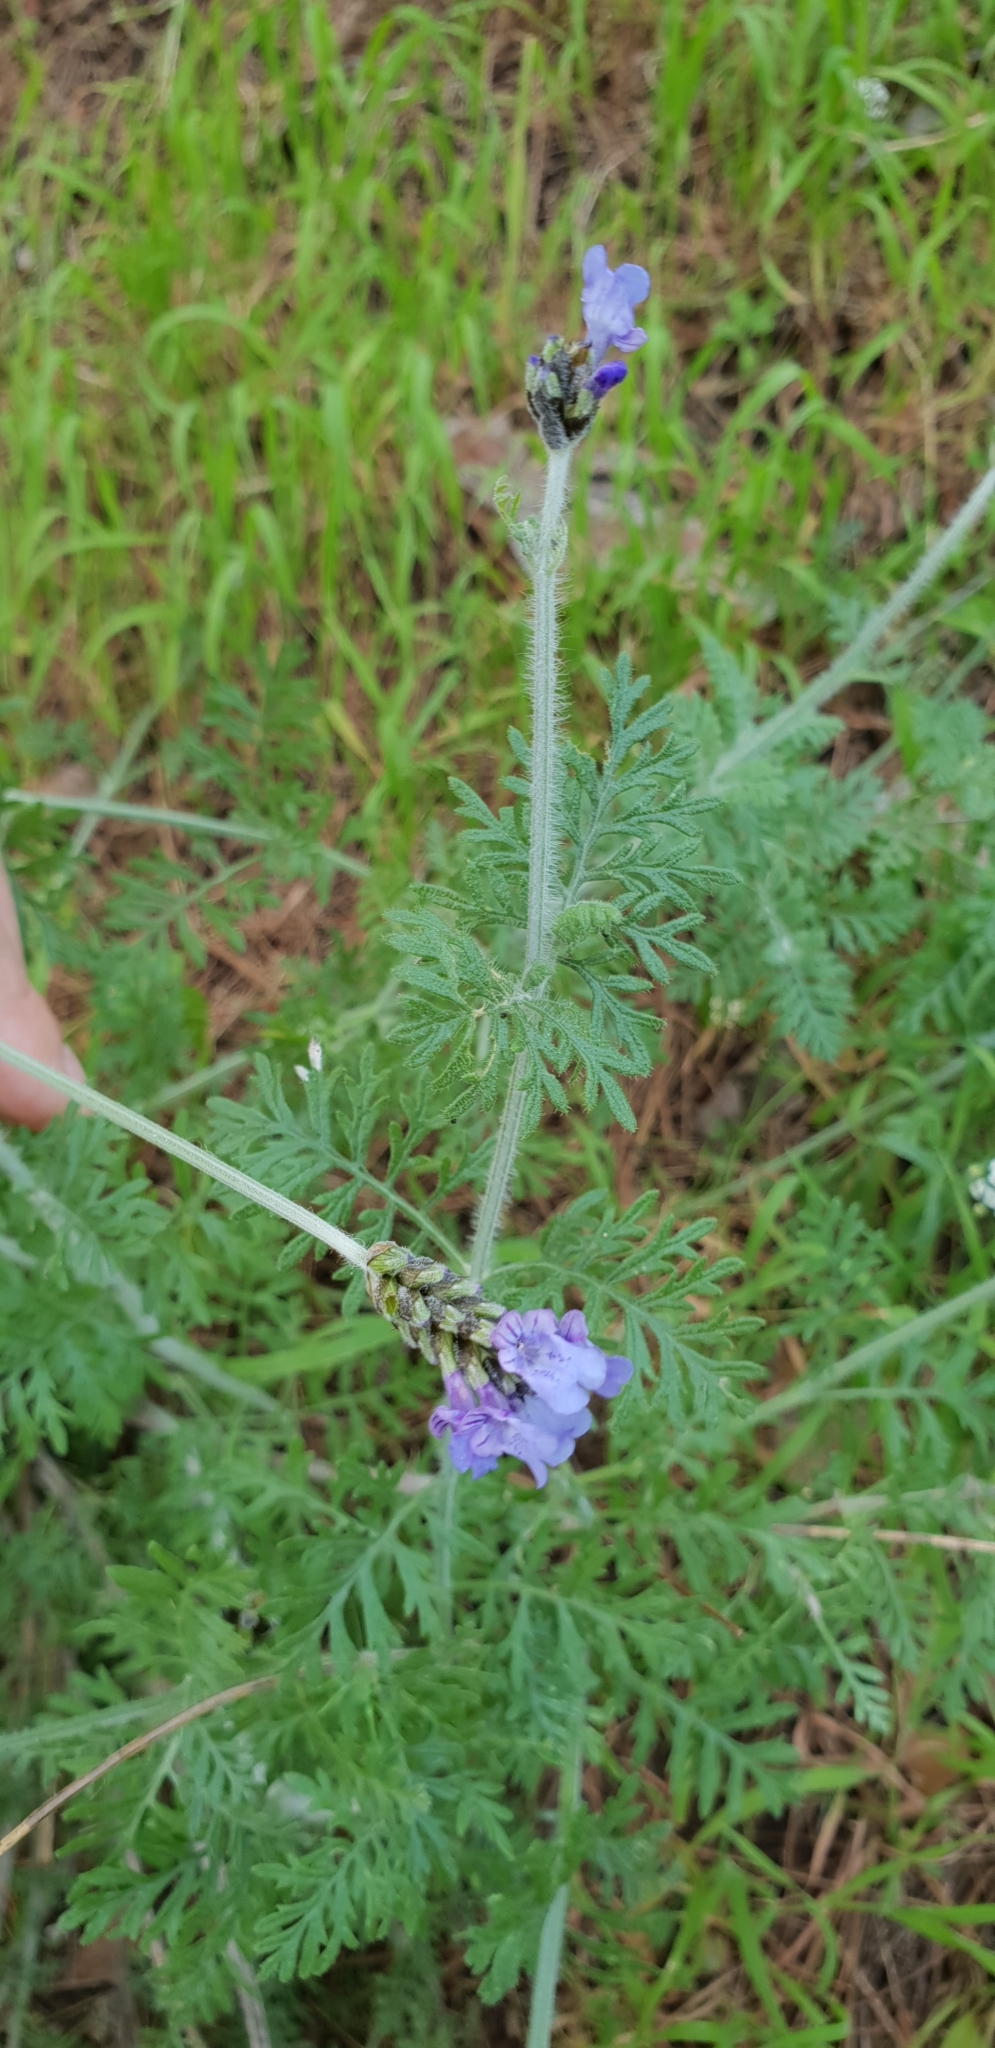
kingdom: Plantae
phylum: Tracheophyta
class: Magnoliopsida
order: Lamiales
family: Lamiaceae
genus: Lavandula
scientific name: Lavandula multifida
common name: Fern-leaf lavender
